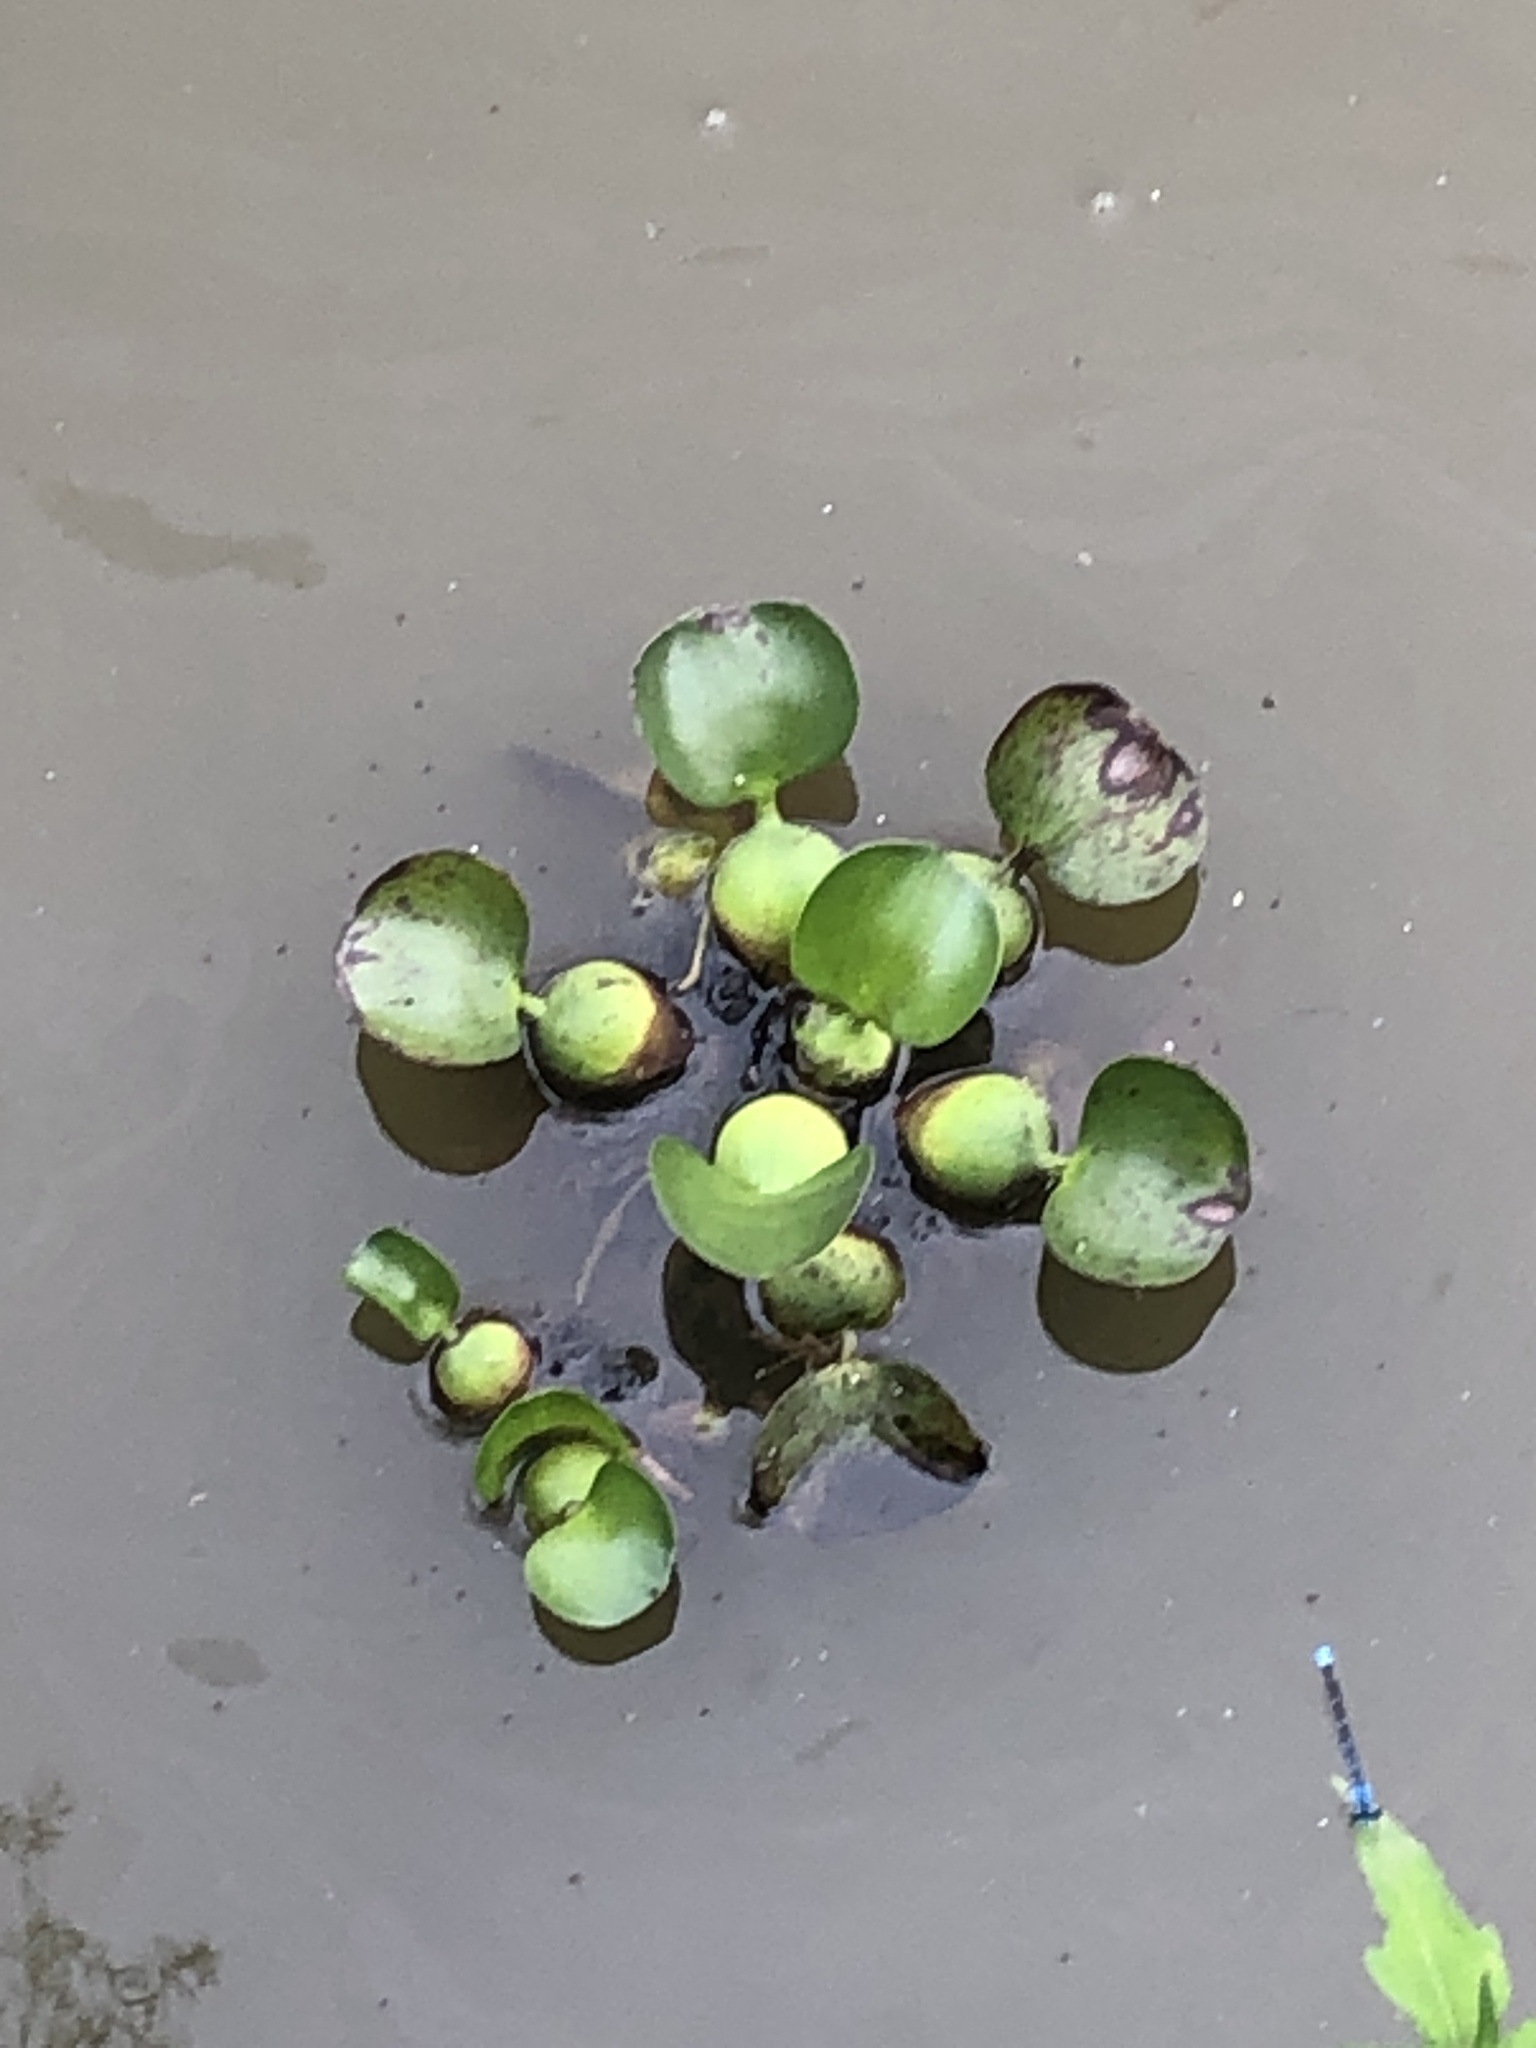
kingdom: Plantae
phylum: Tracheophyta
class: Liliopsida
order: Commelinales
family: Pontederiaceae
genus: Pontederia
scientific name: Pontederia crassipes
